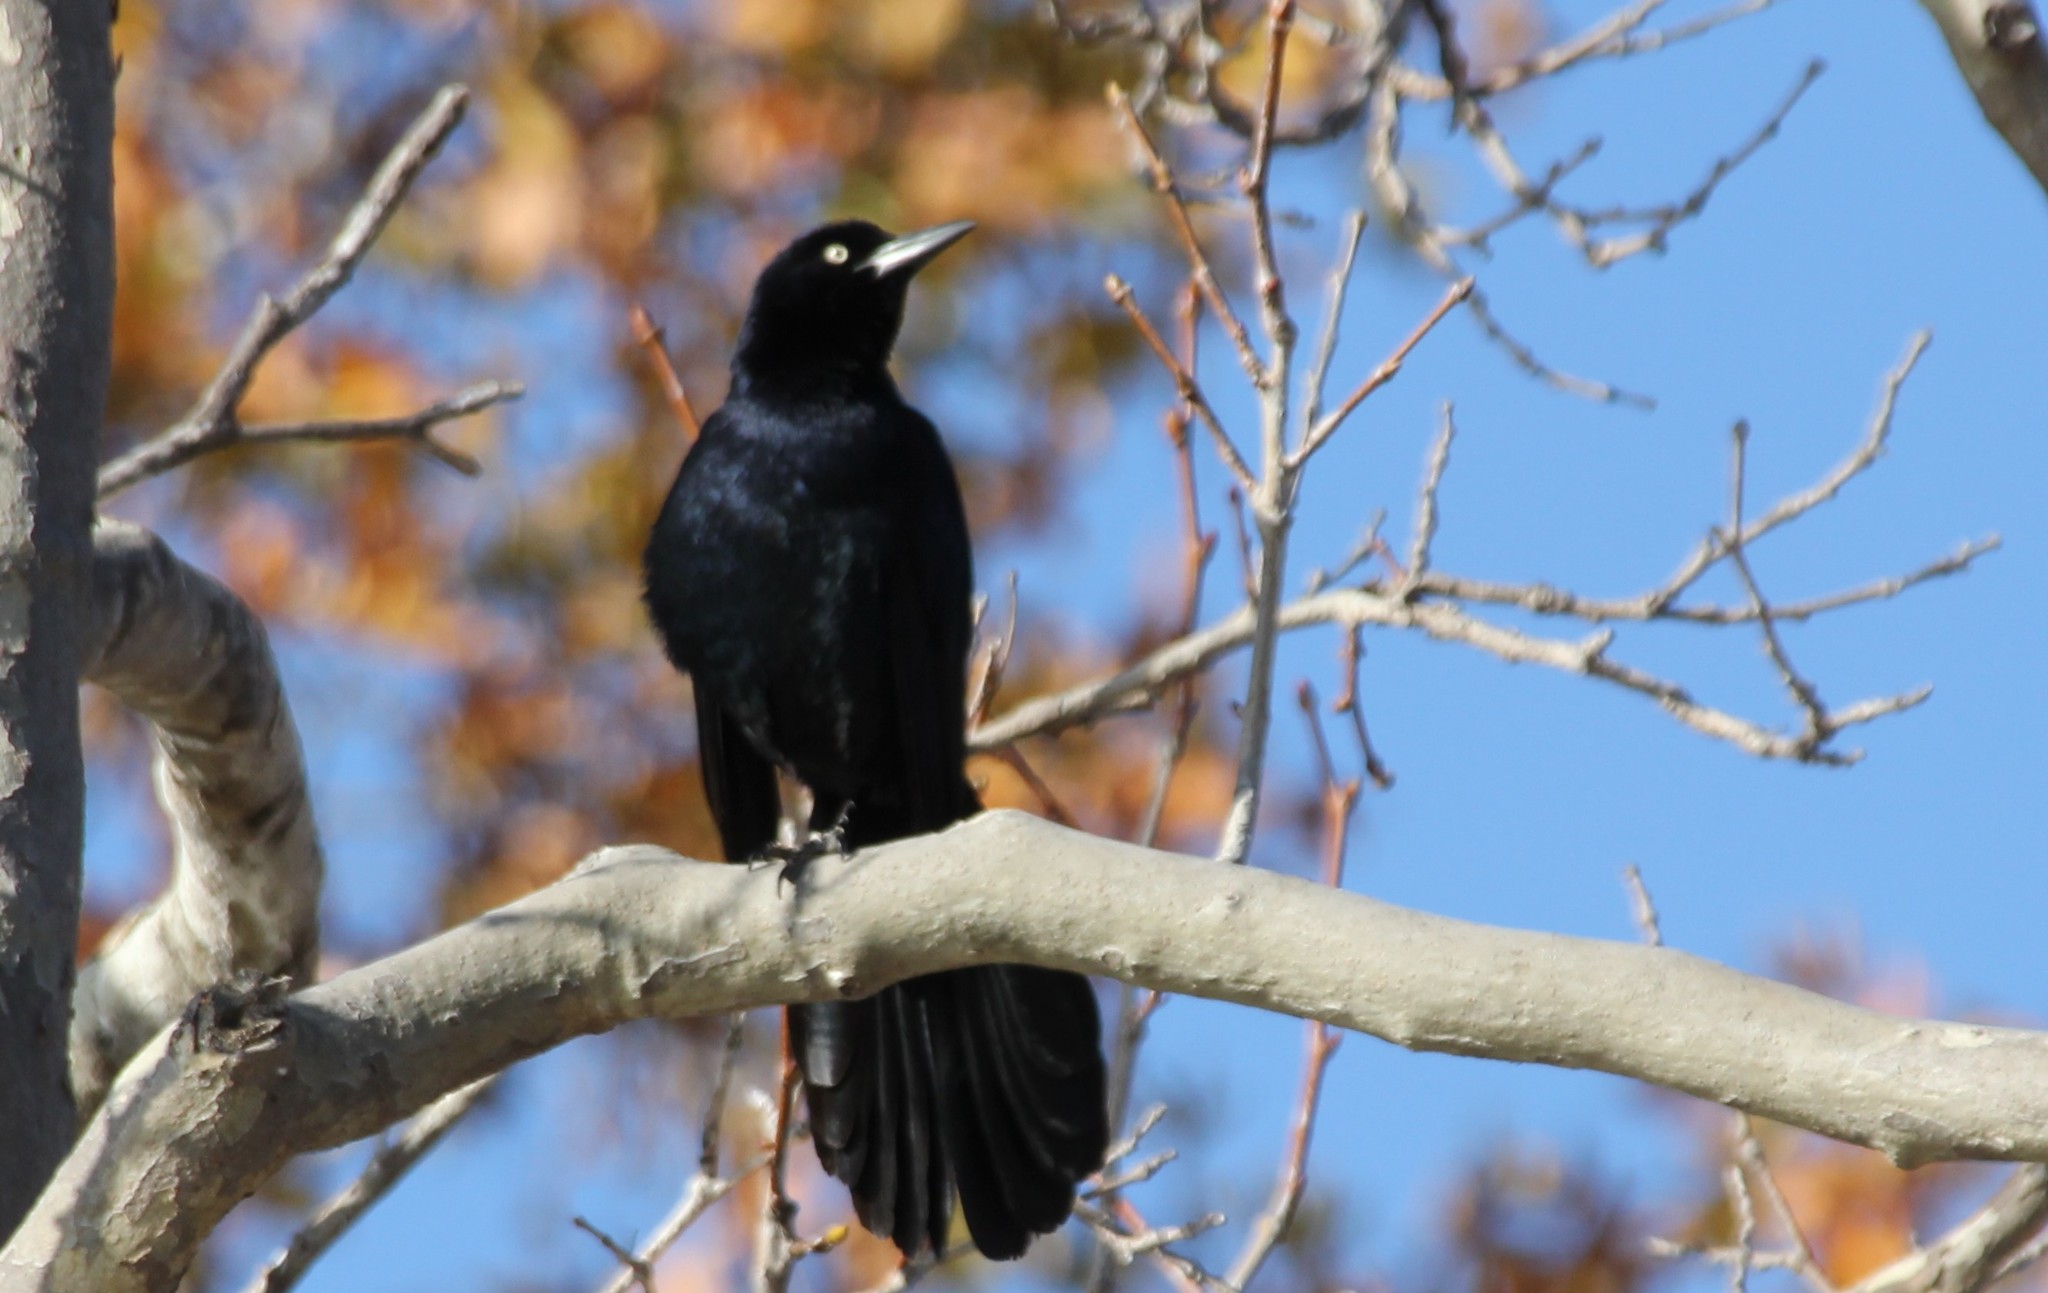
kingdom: Animalia
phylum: Chordata
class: Aves
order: Passeriformes
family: Icteridae
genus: Quiscalus
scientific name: Quiscalus mexicanus
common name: Great-tailed grackle
